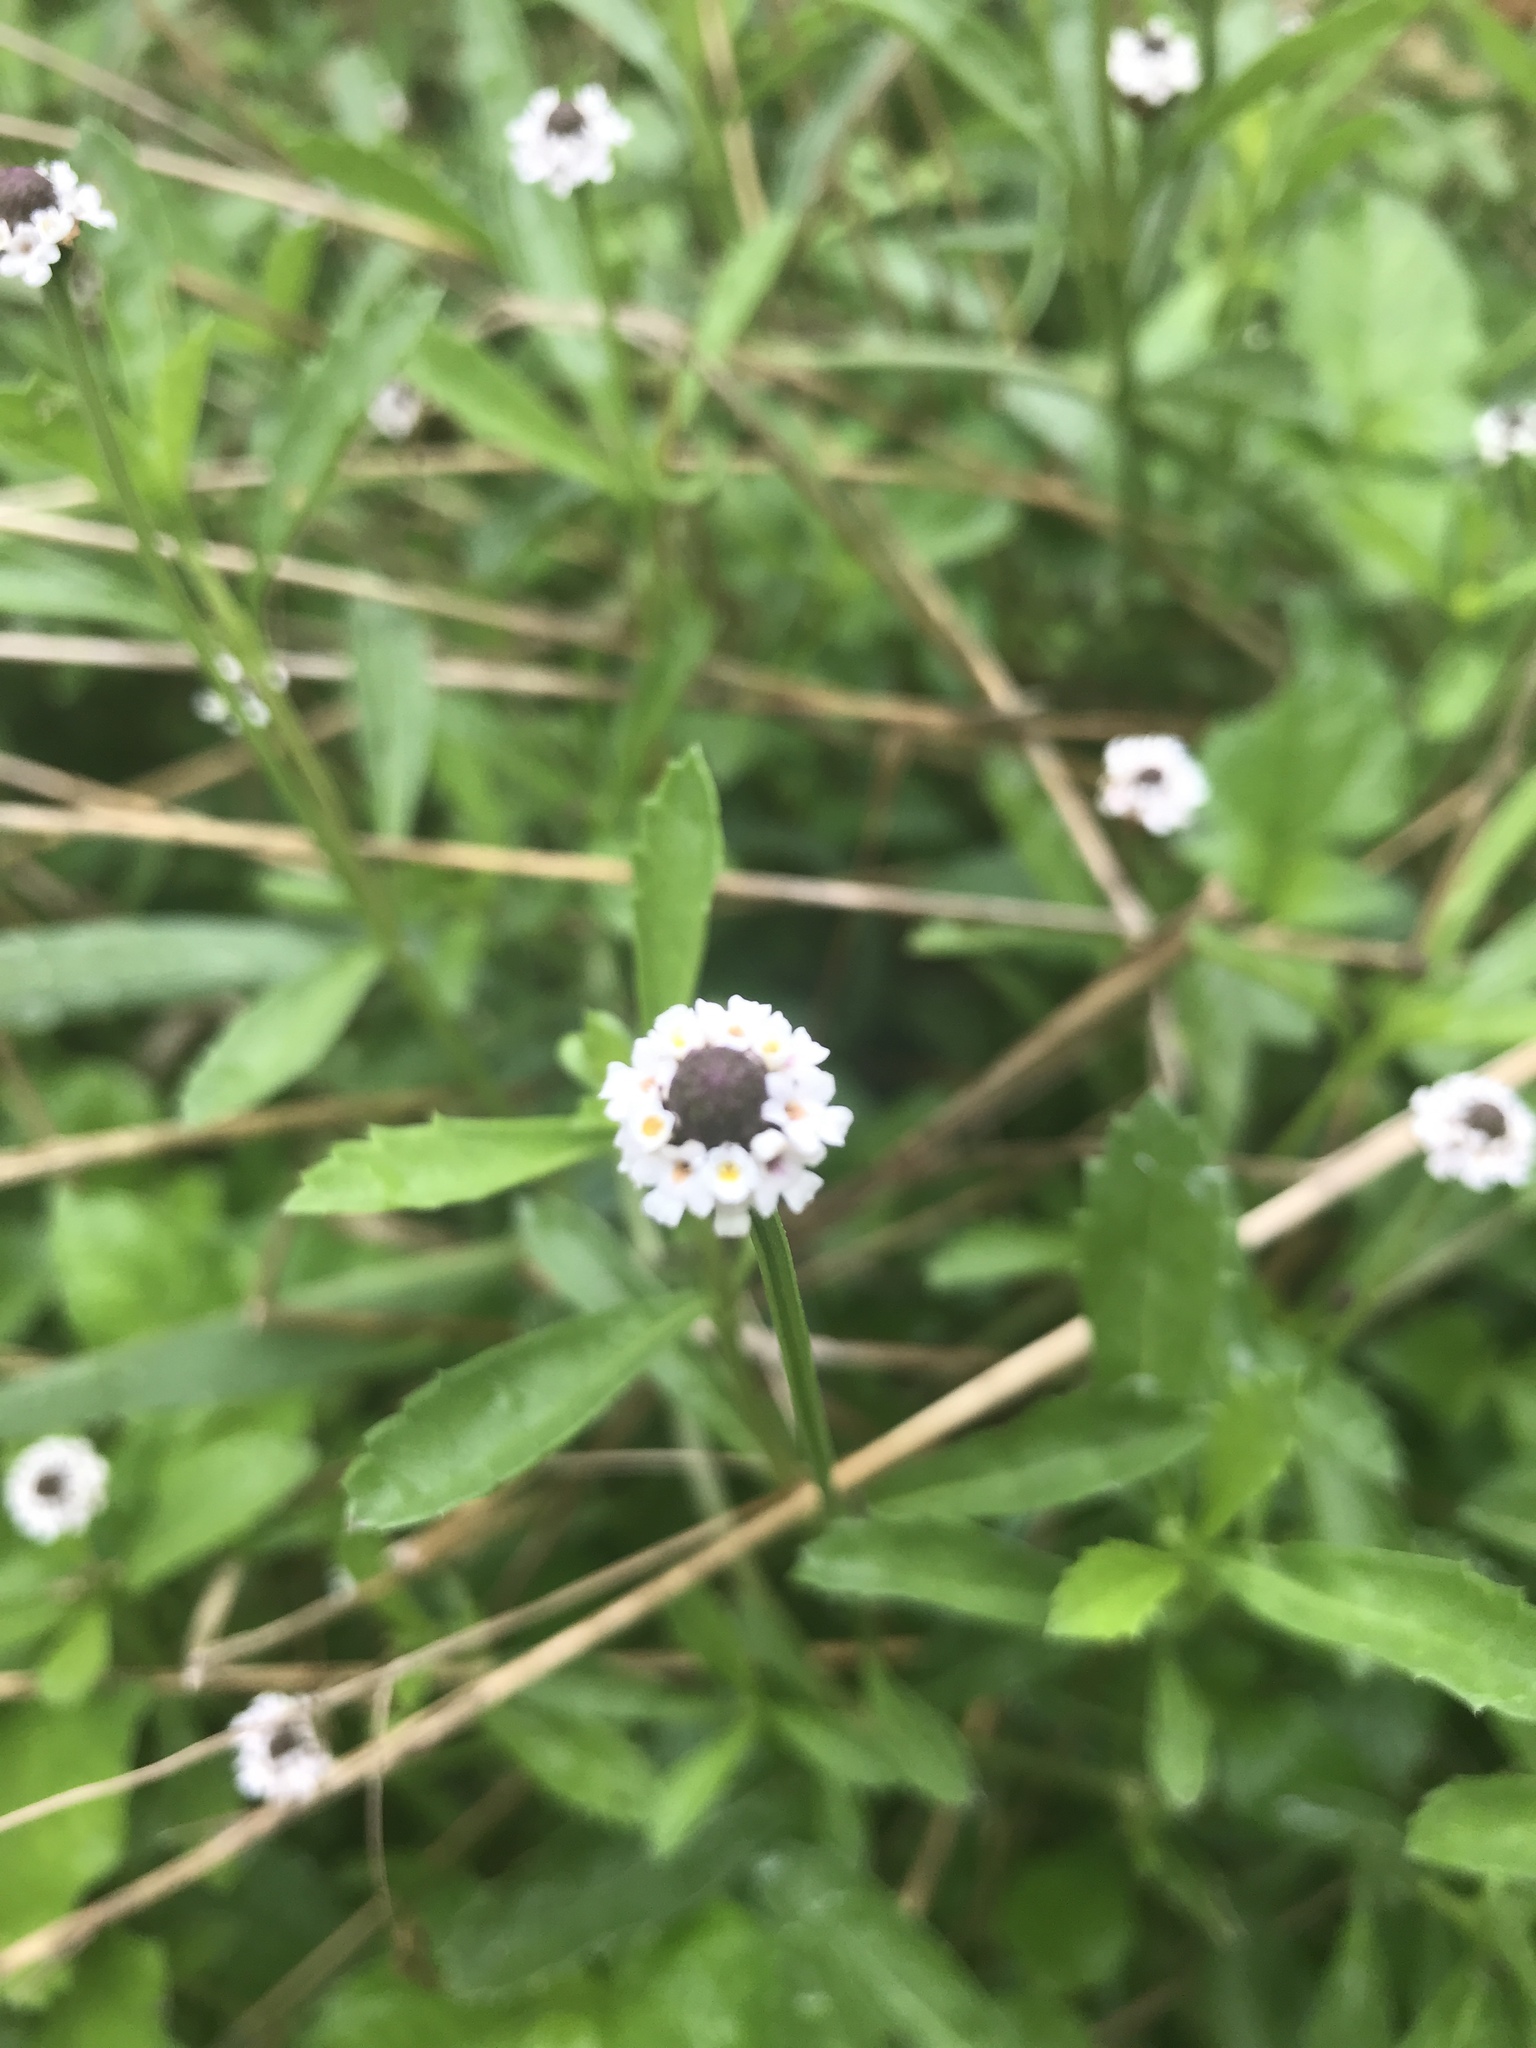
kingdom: Plantae
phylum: Tracheophyta
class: Magnoliopsida
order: Lamiales
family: Verbenaceae
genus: Phyla
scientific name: Phyla nodiflora
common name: Frogfruit
